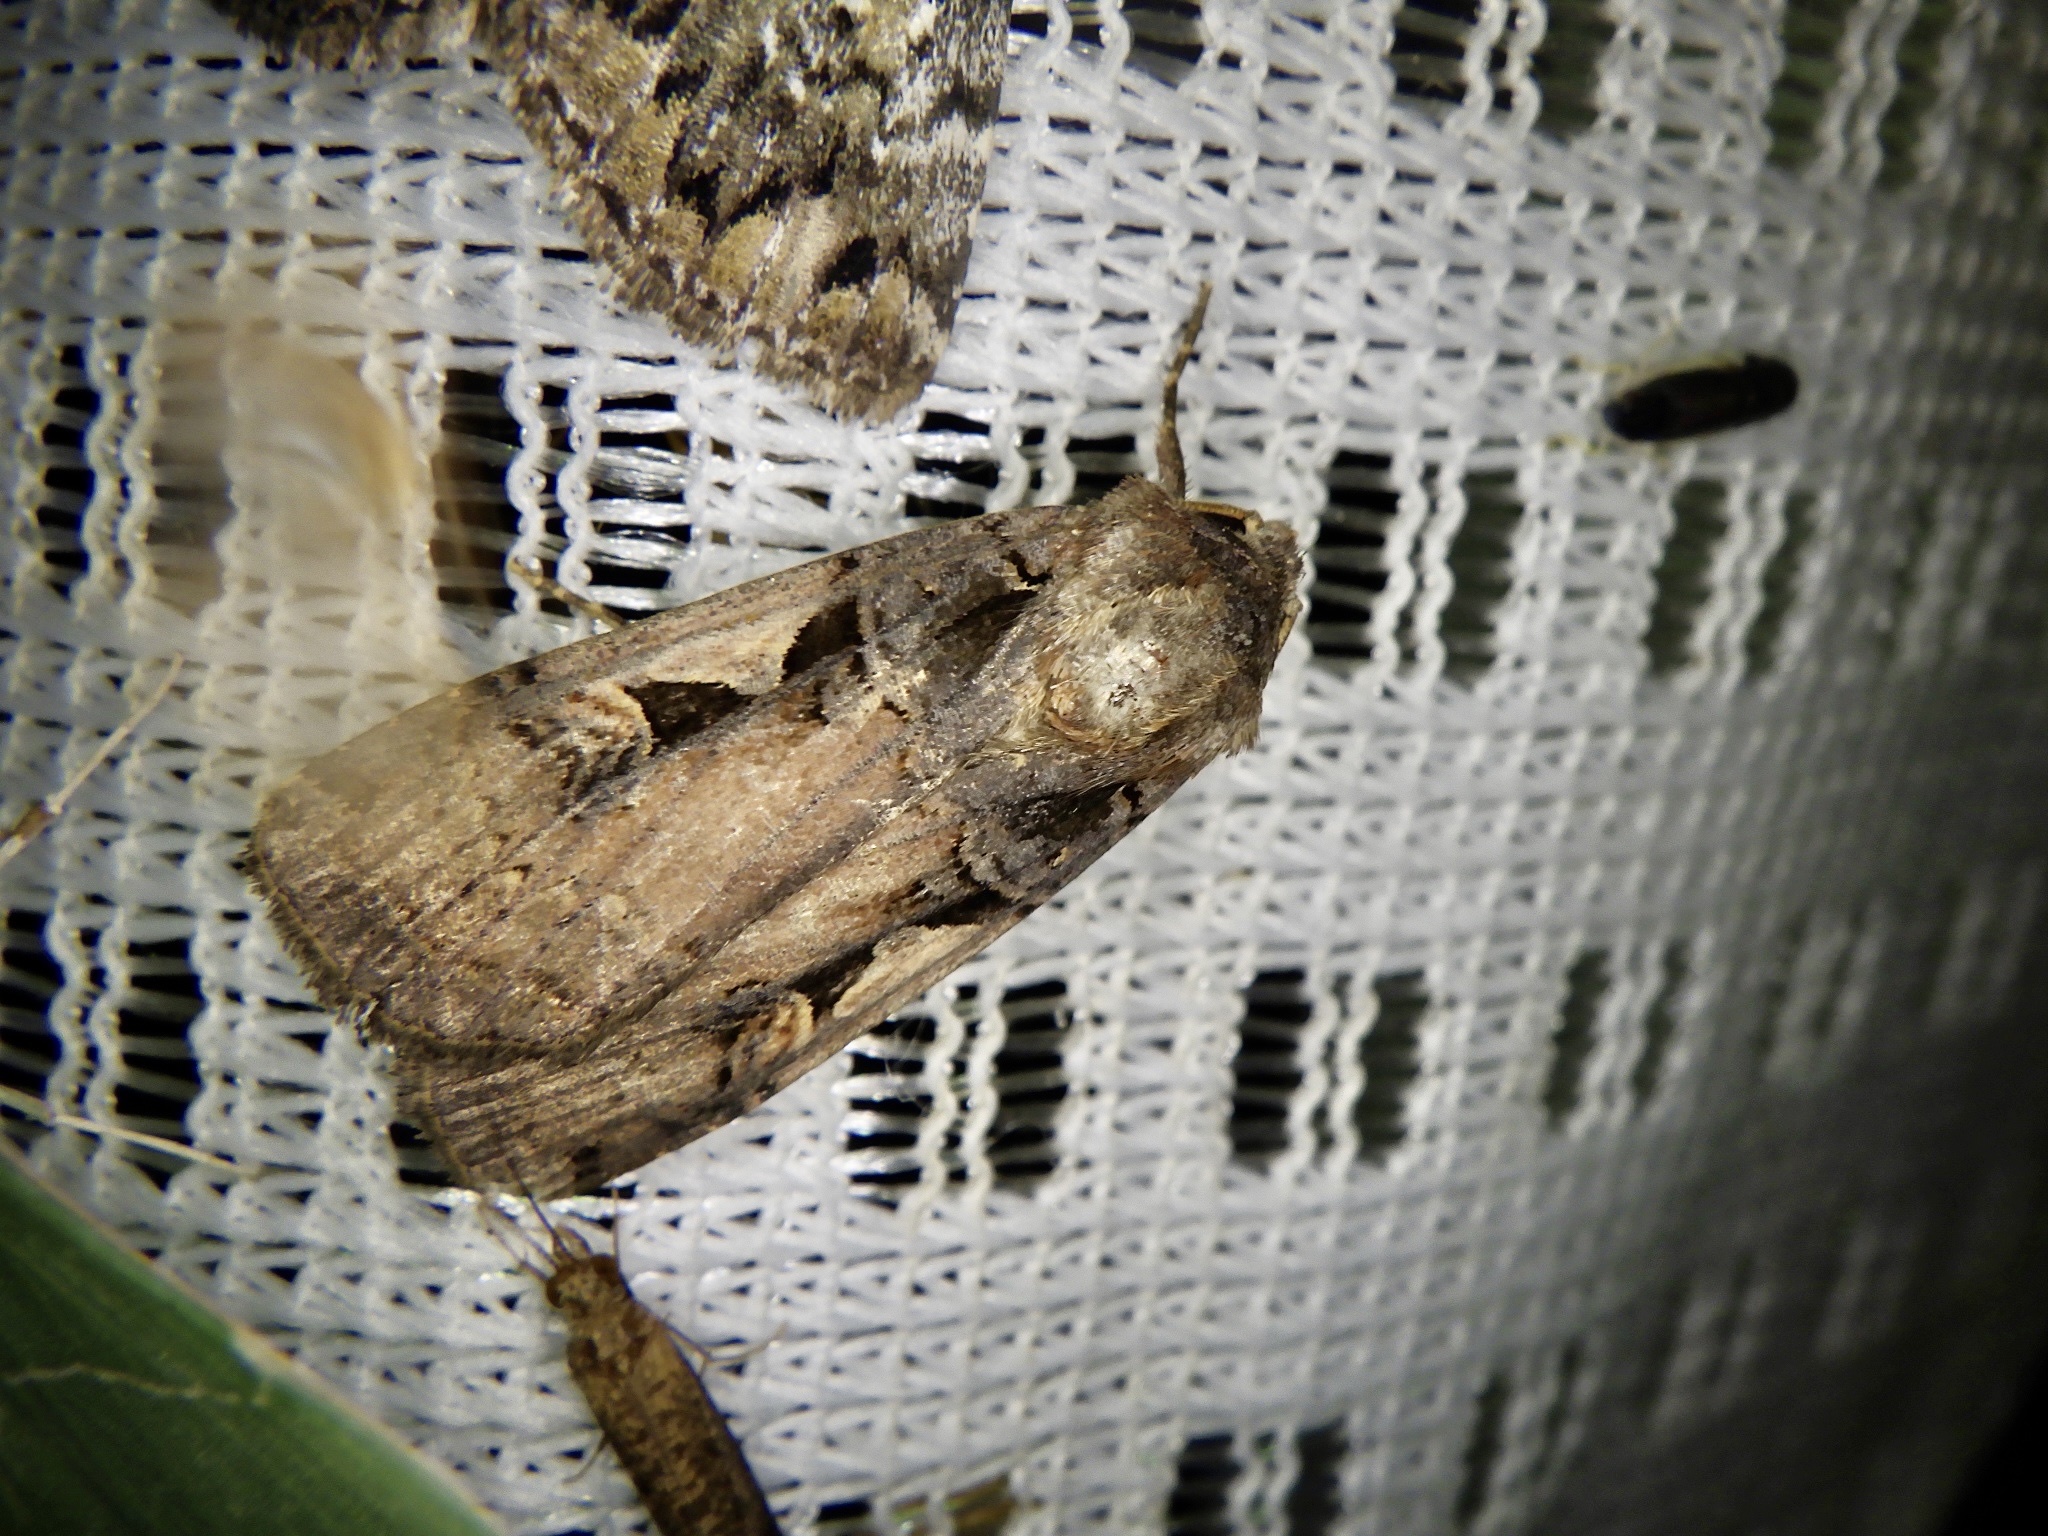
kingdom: Animalia
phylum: Arthropoda
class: Insecta
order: Lepidoptera
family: Noctuidae
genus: Xestia
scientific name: Xestia c-nigrum
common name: Setaceous hebrew character
